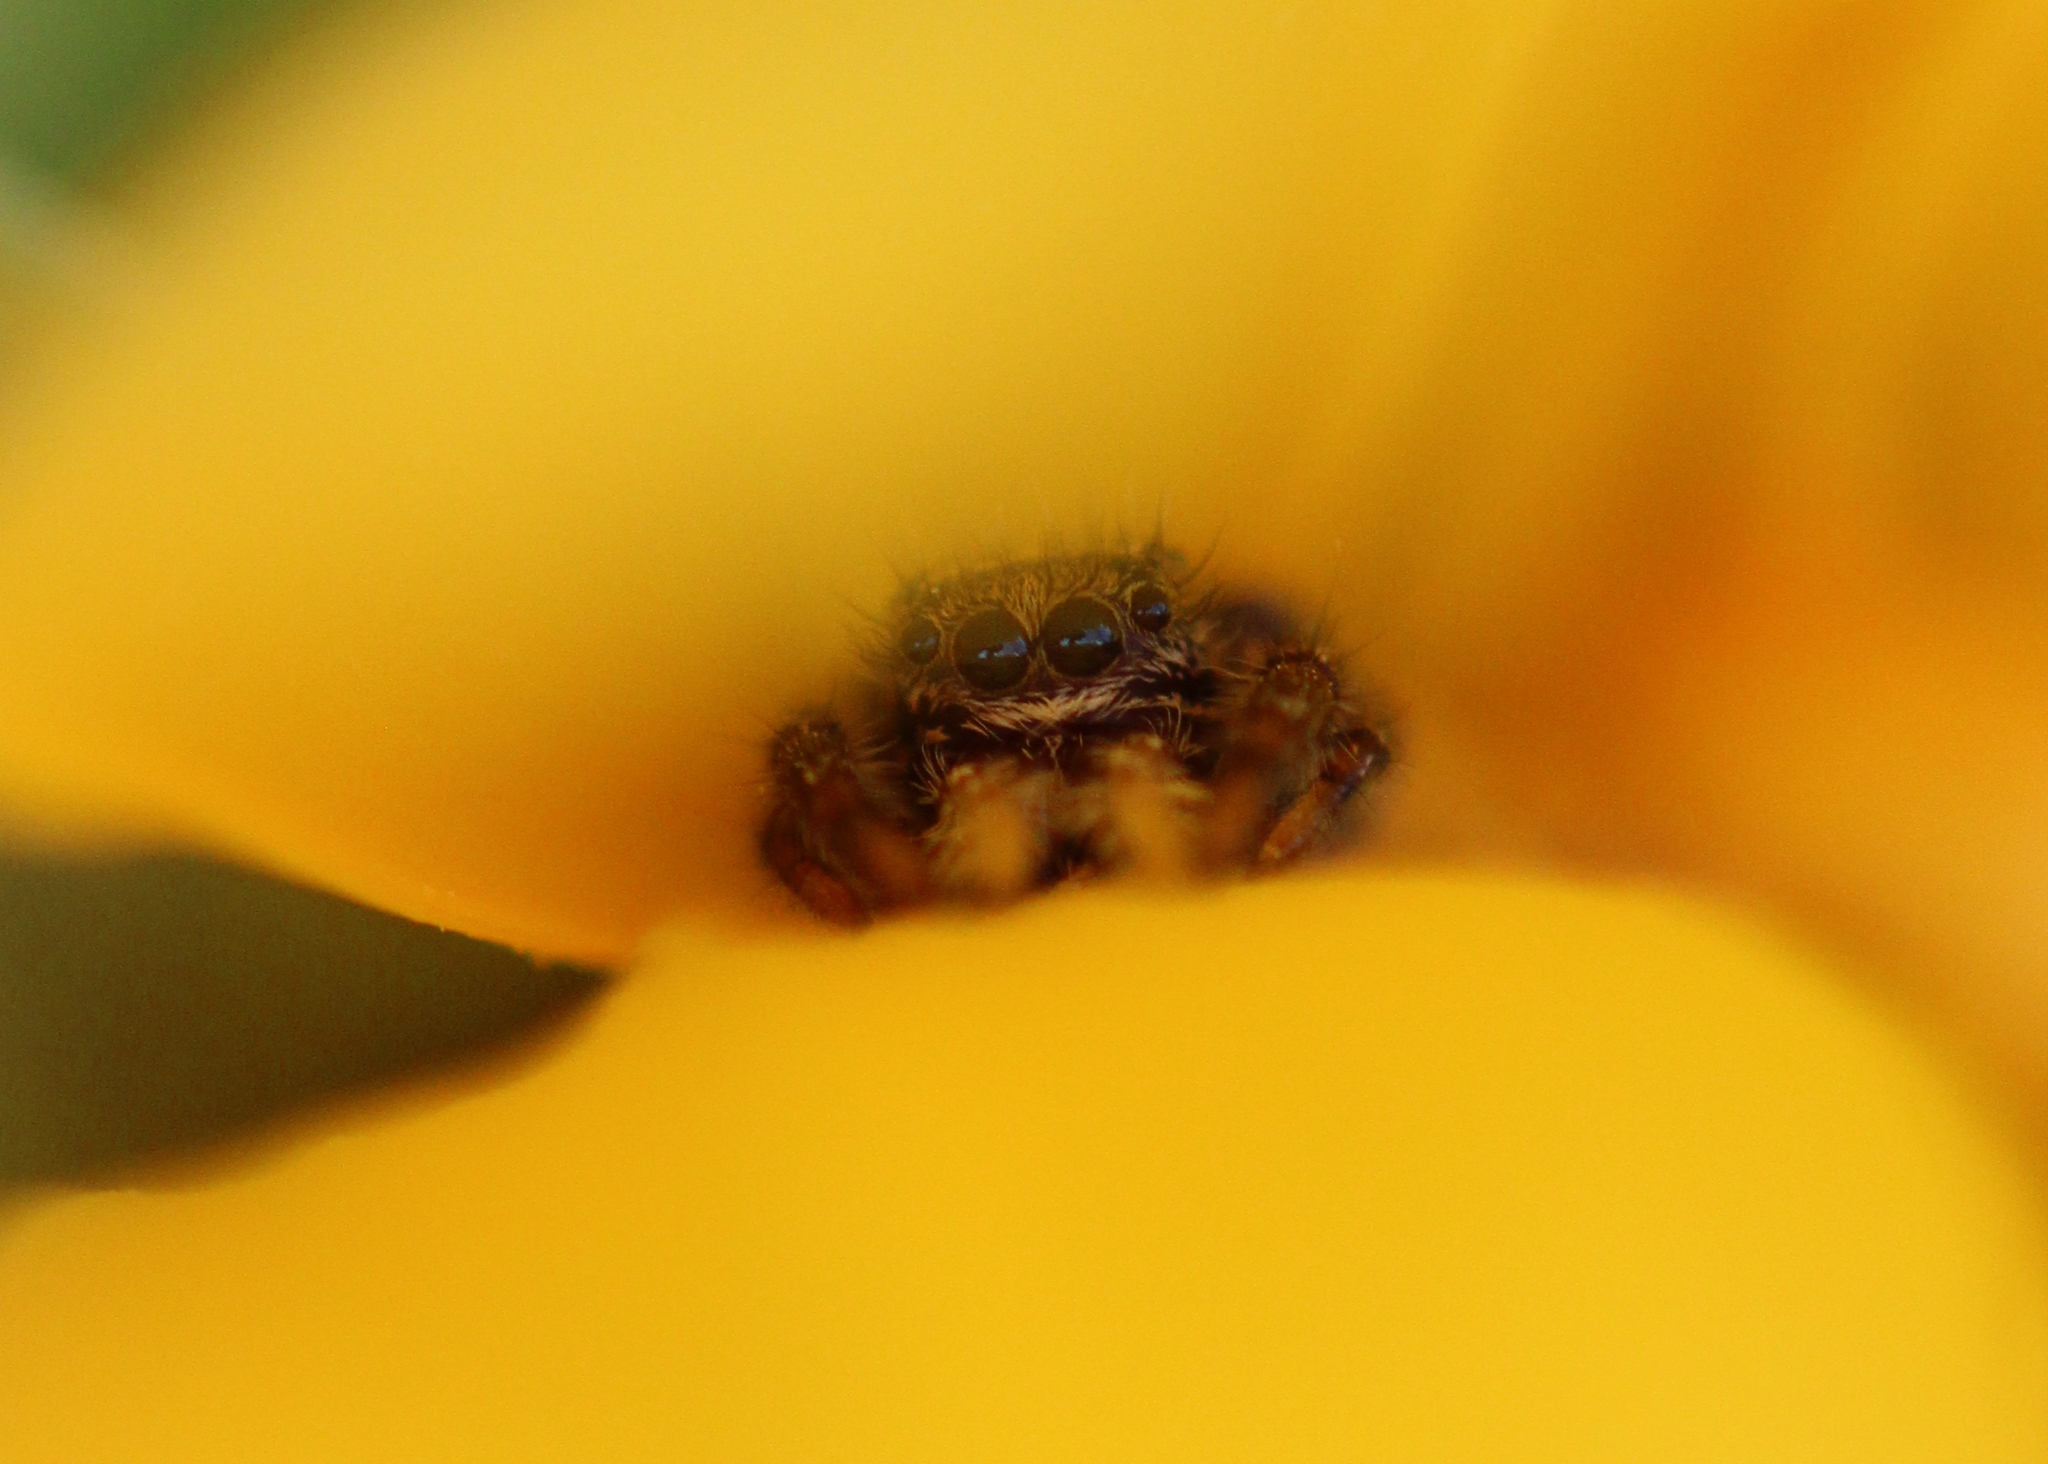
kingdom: Animalia
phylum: Arthropoda
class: Arachnida
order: Araneae
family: Salticidae
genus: Phidippus
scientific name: Phidippus clarus
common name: Brilliant jumping spider
